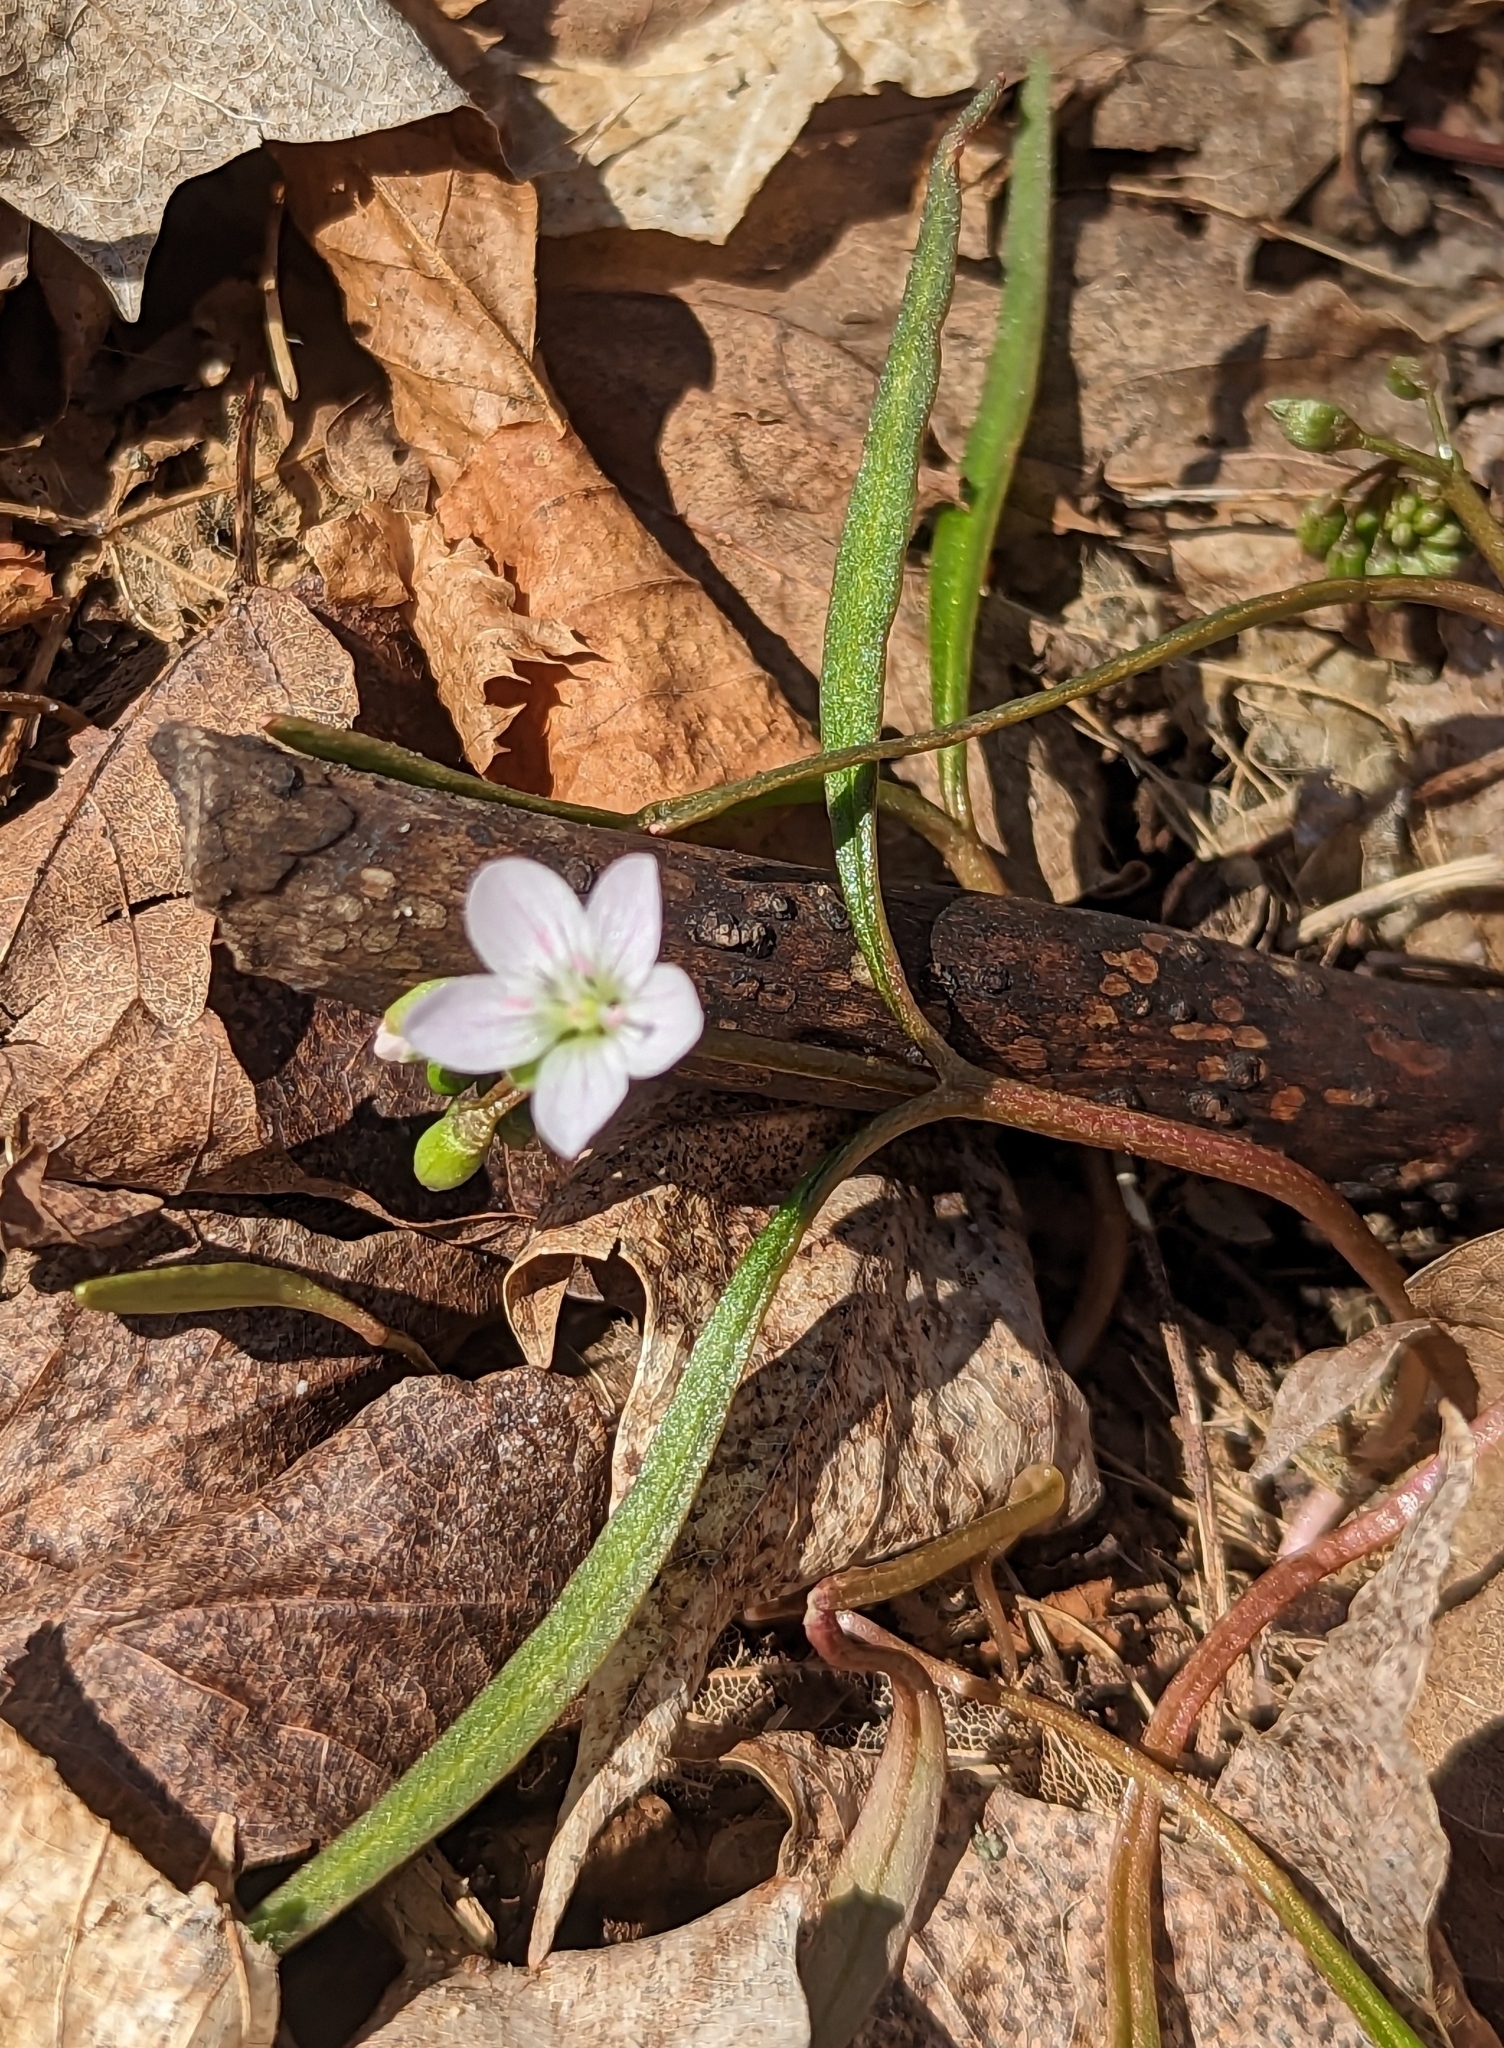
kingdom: Plantae
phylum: Tracheophyta
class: Magnoliopsida
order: Caryophyllales
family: Montiaceae
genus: Claytonia
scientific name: Claytonia virginica
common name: Virginia springbeauty
